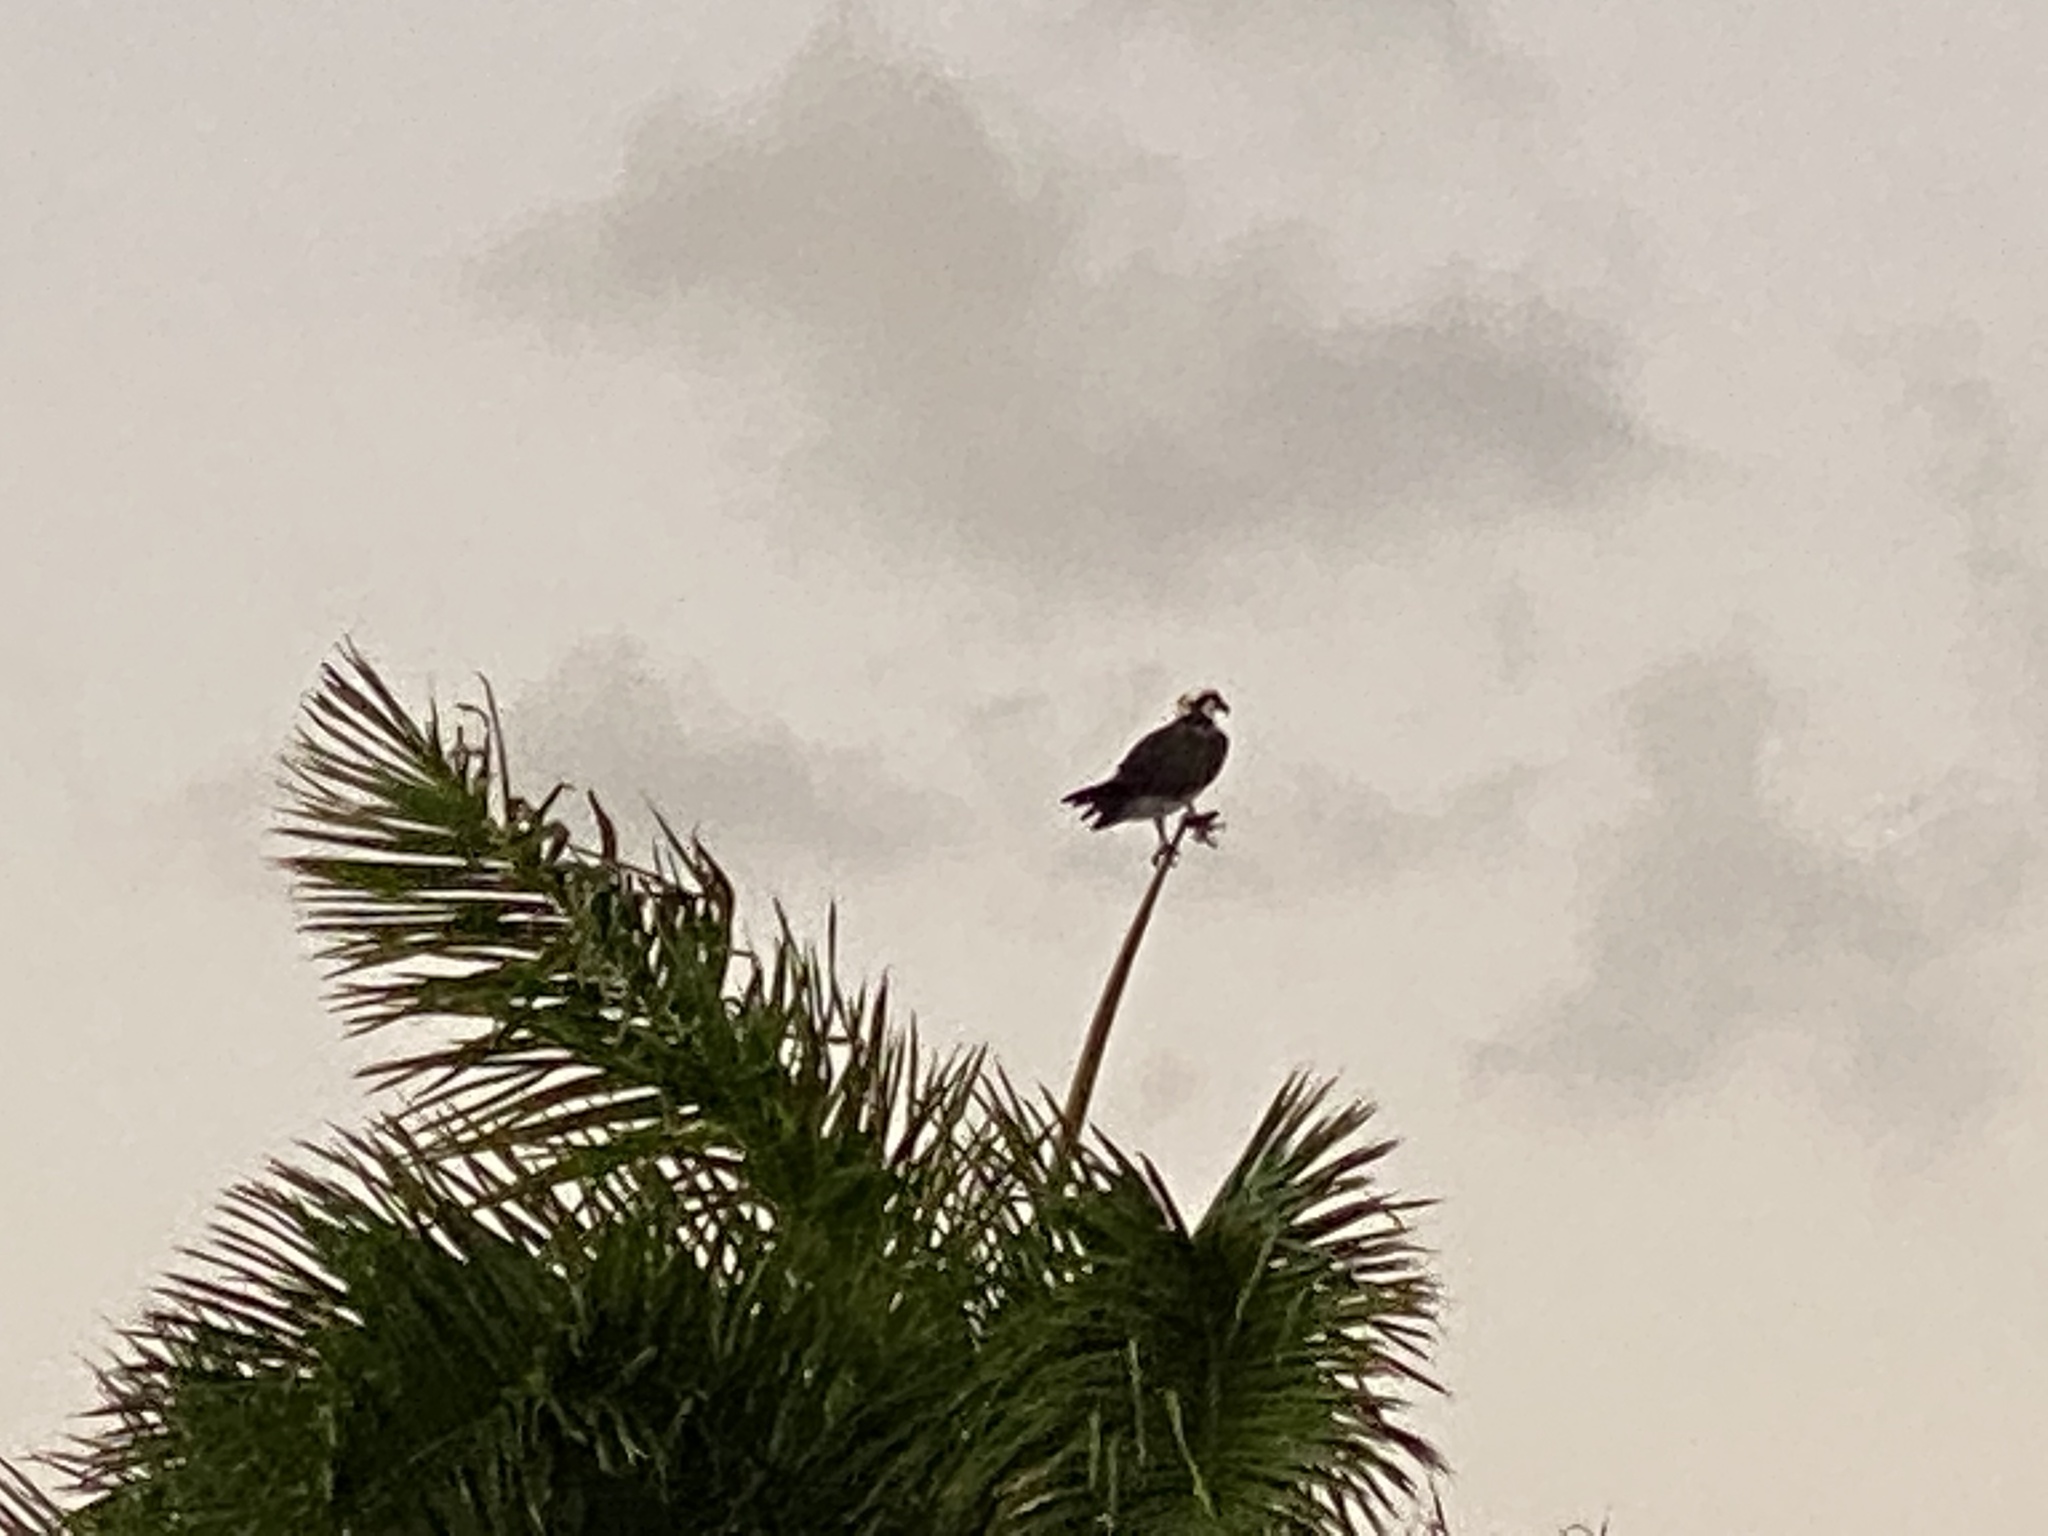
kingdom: Animalia
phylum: Chordata
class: Aves
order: Accipitriformes
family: Pandionidae
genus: Pandion
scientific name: Pandion haliaetus
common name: Osprey
